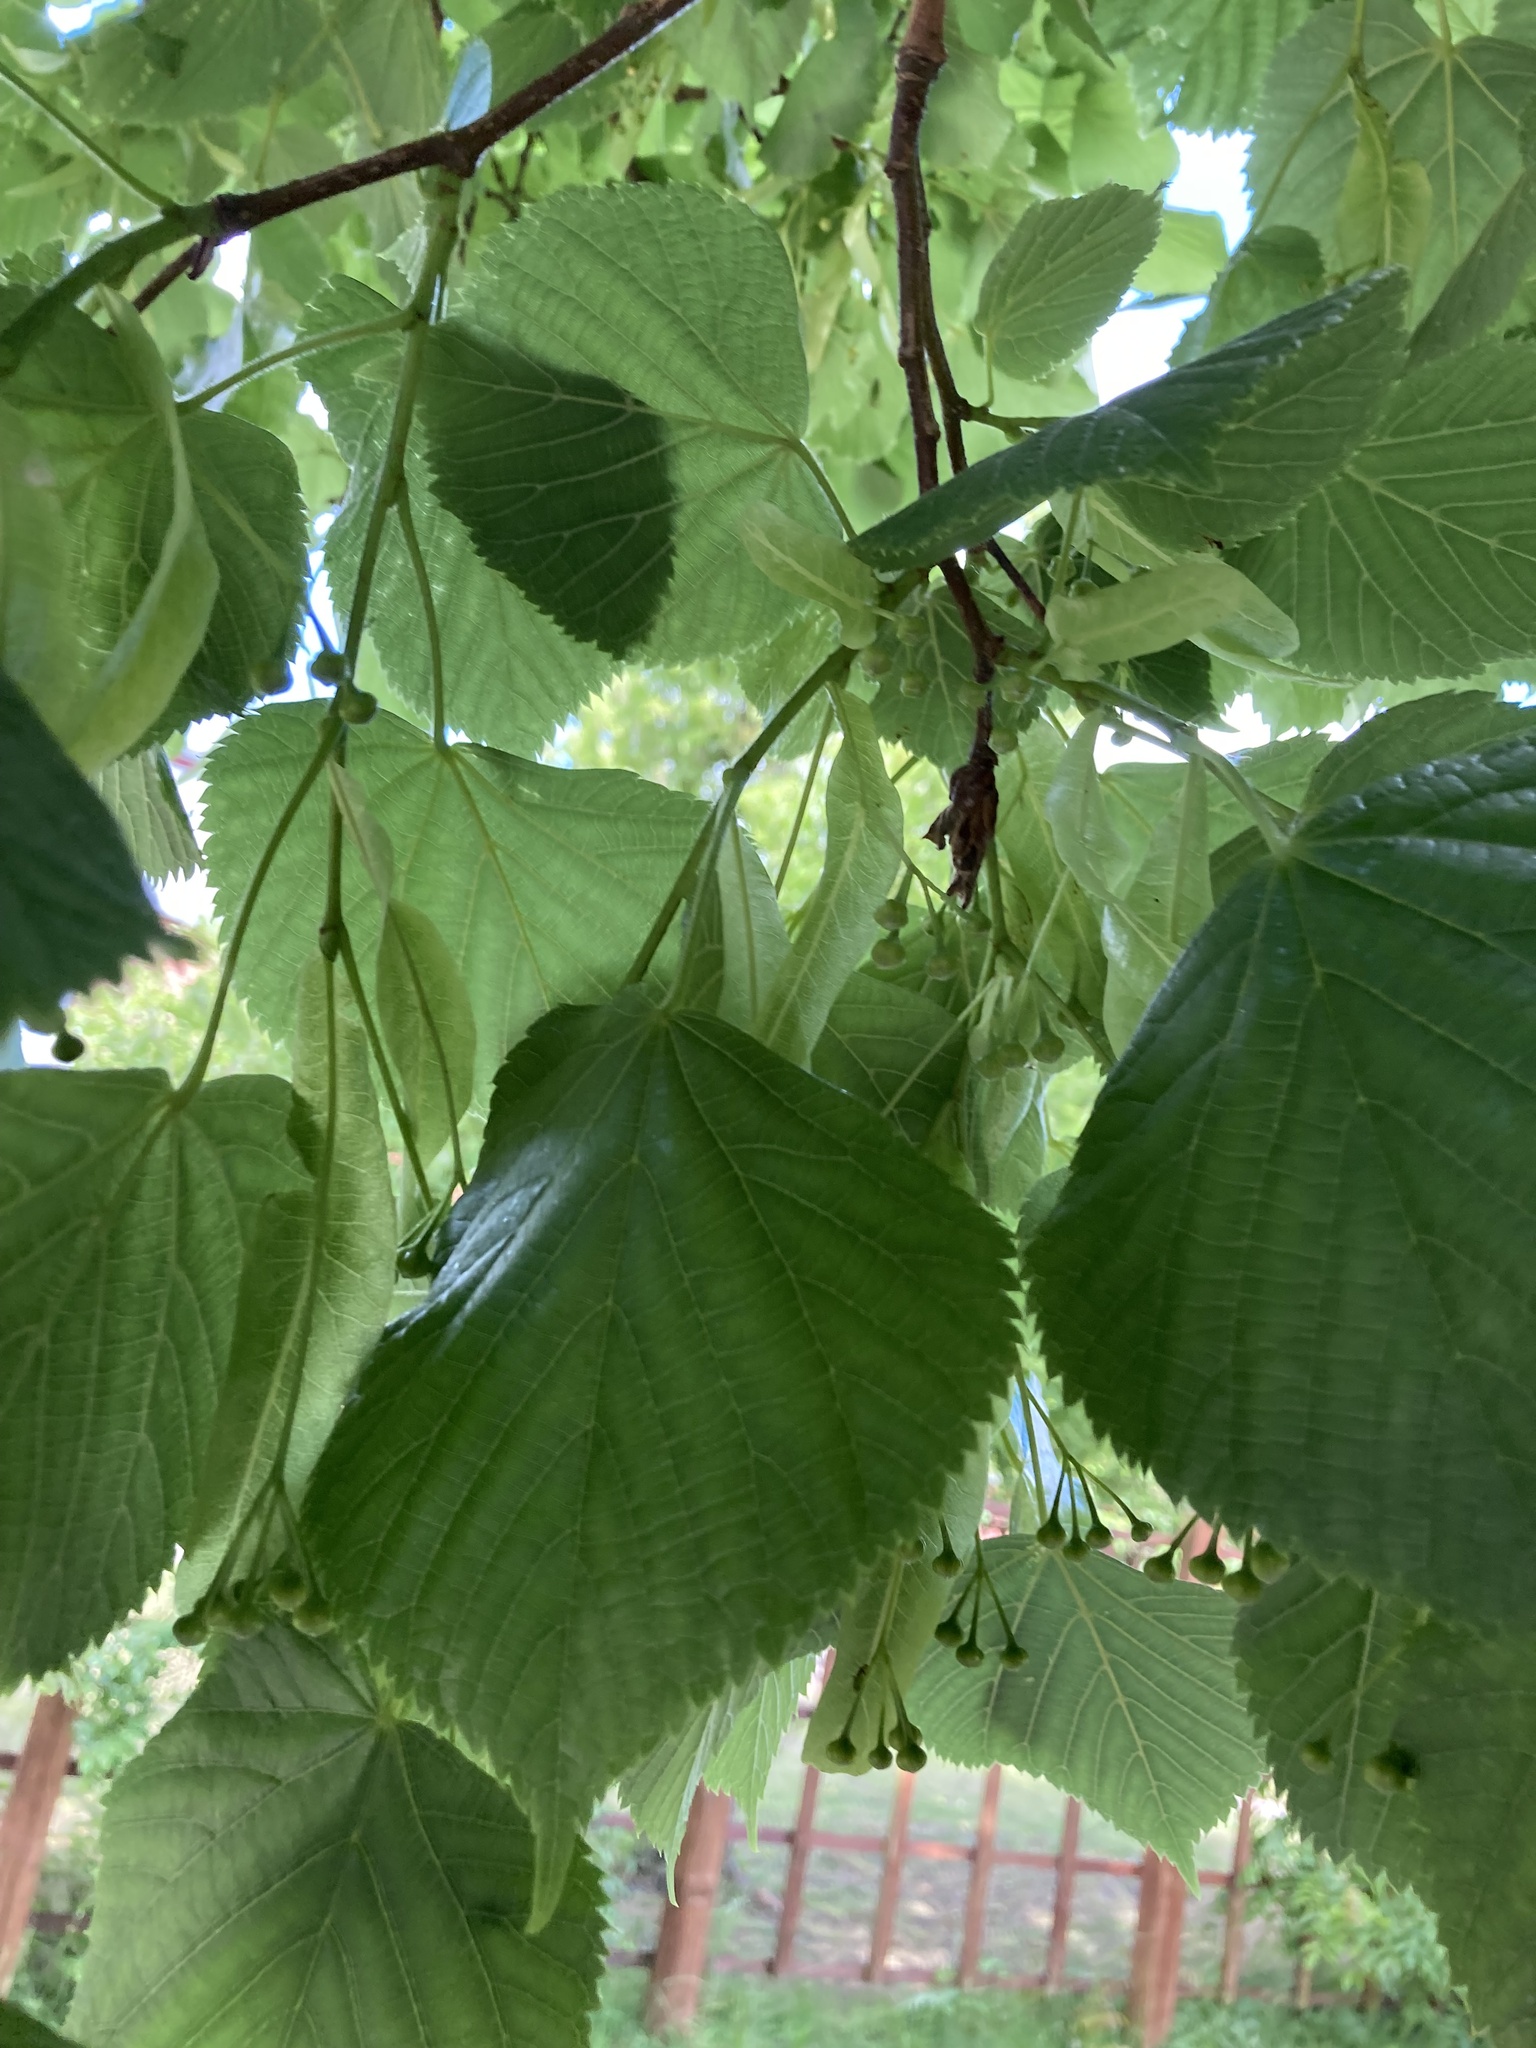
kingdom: Animalia
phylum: Arthropoda
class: Arachnida
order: Trombidiformes
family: Eriophyidae
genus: Eriophyes
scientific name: Eriophyes tiliae
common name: Red nail gall mite
